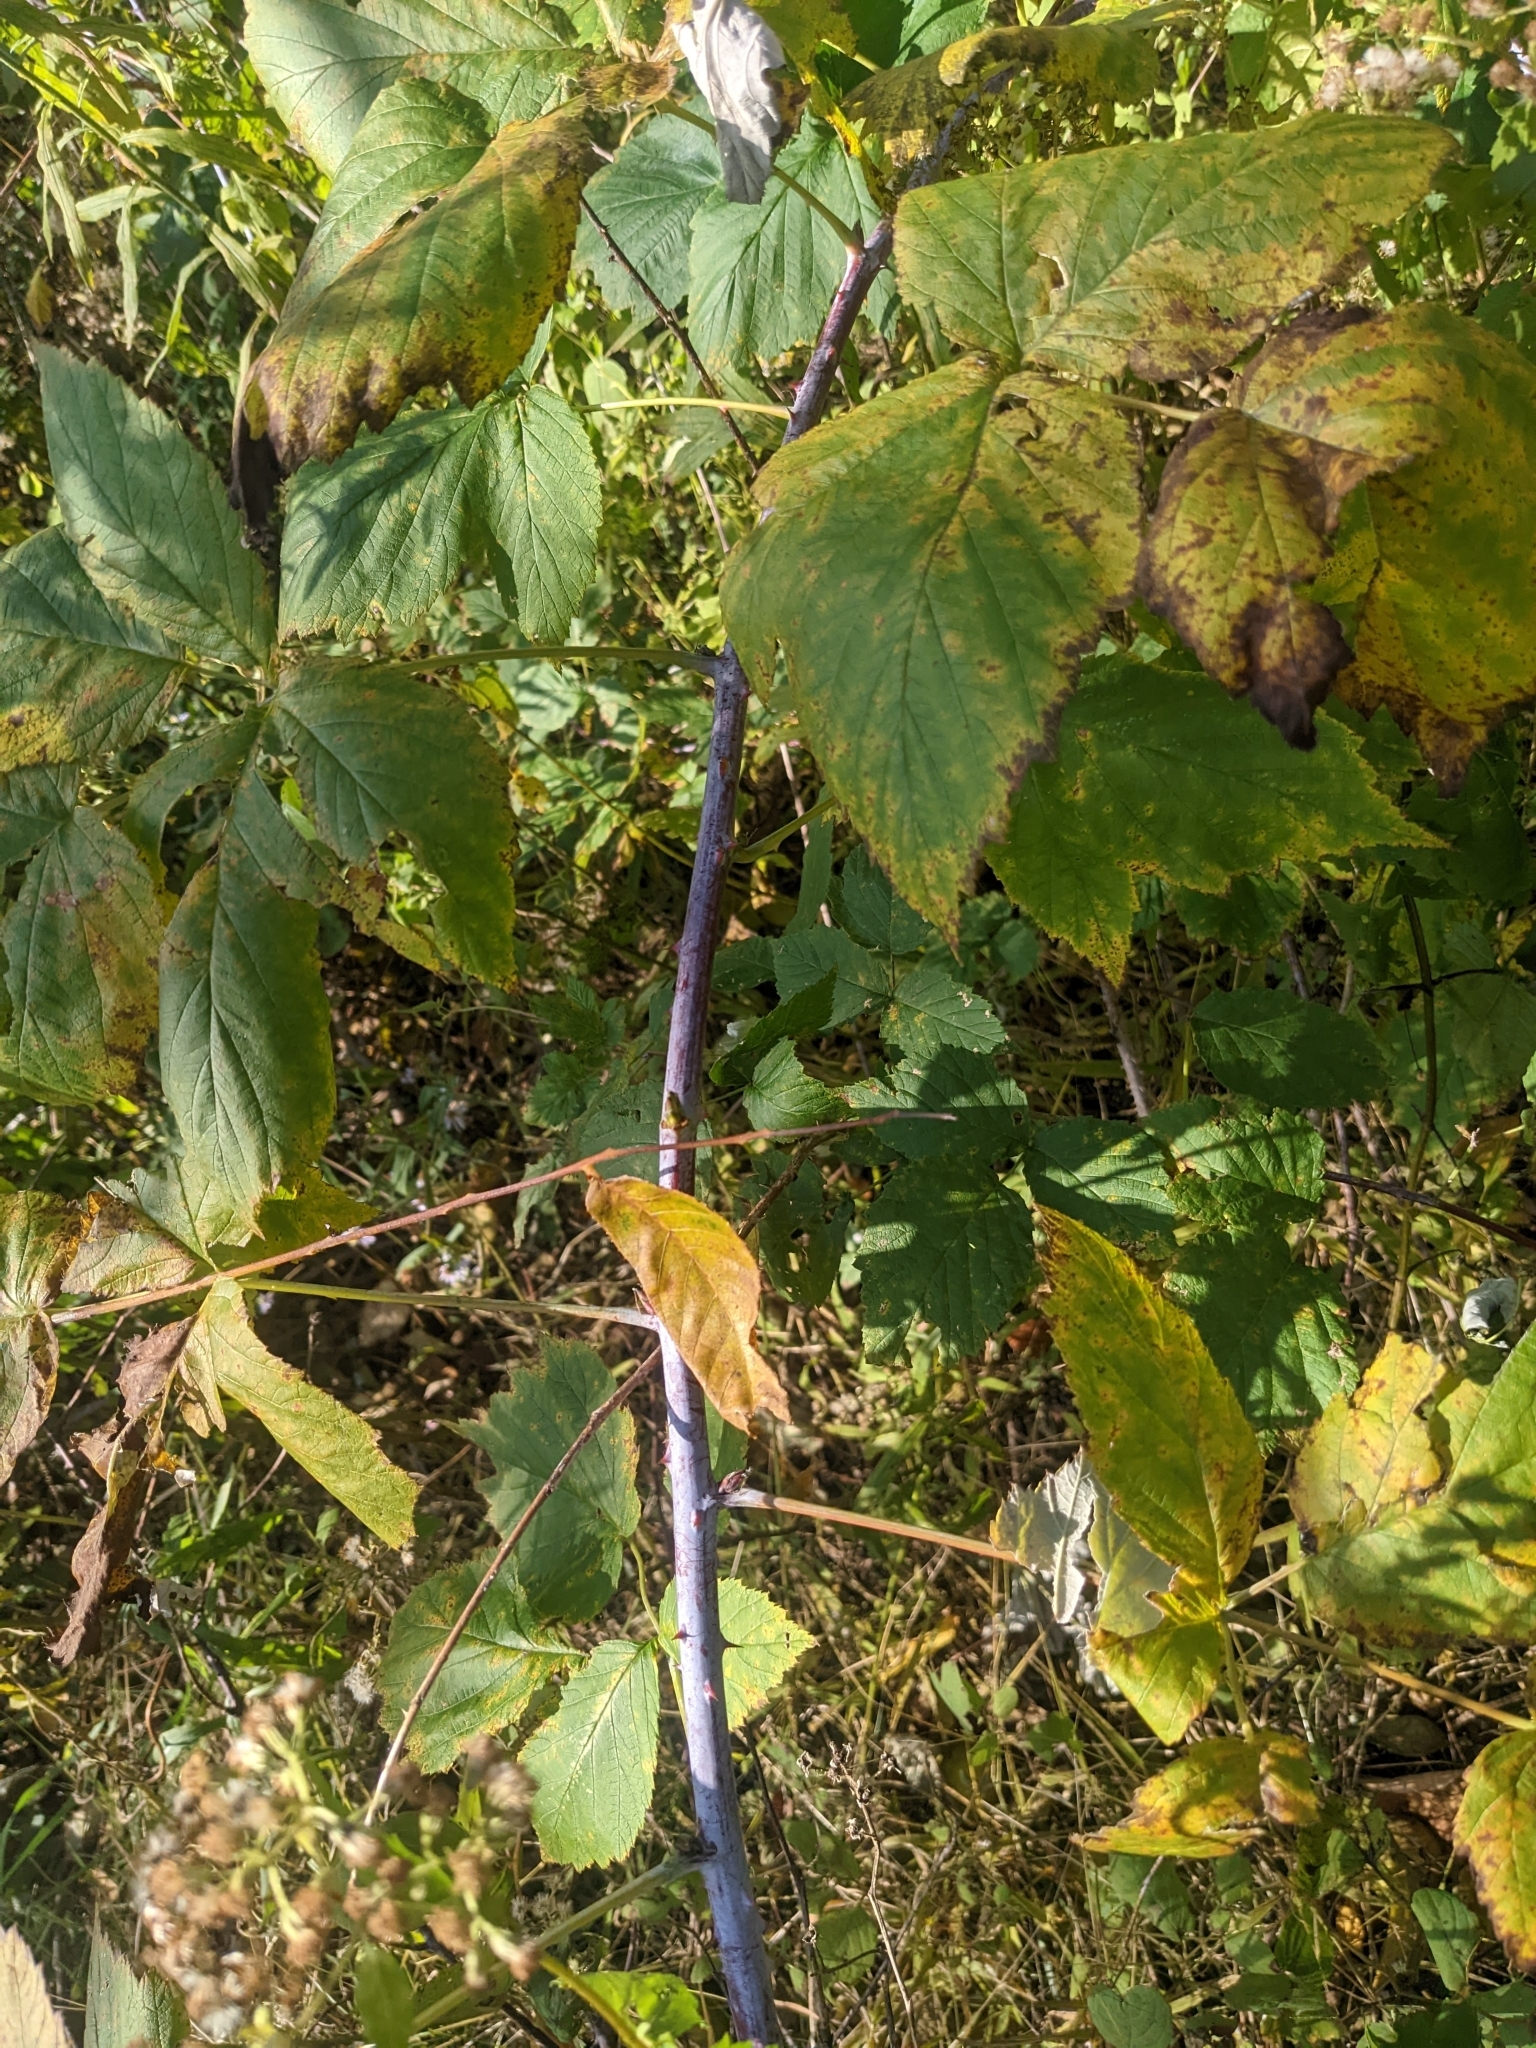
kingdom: Plantae
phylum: Tracheophyta
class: Magnoliopsida
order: Rosales
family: Rosaceae
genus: Rubus
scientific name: Rubus occidentalis
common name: Black raspberry
